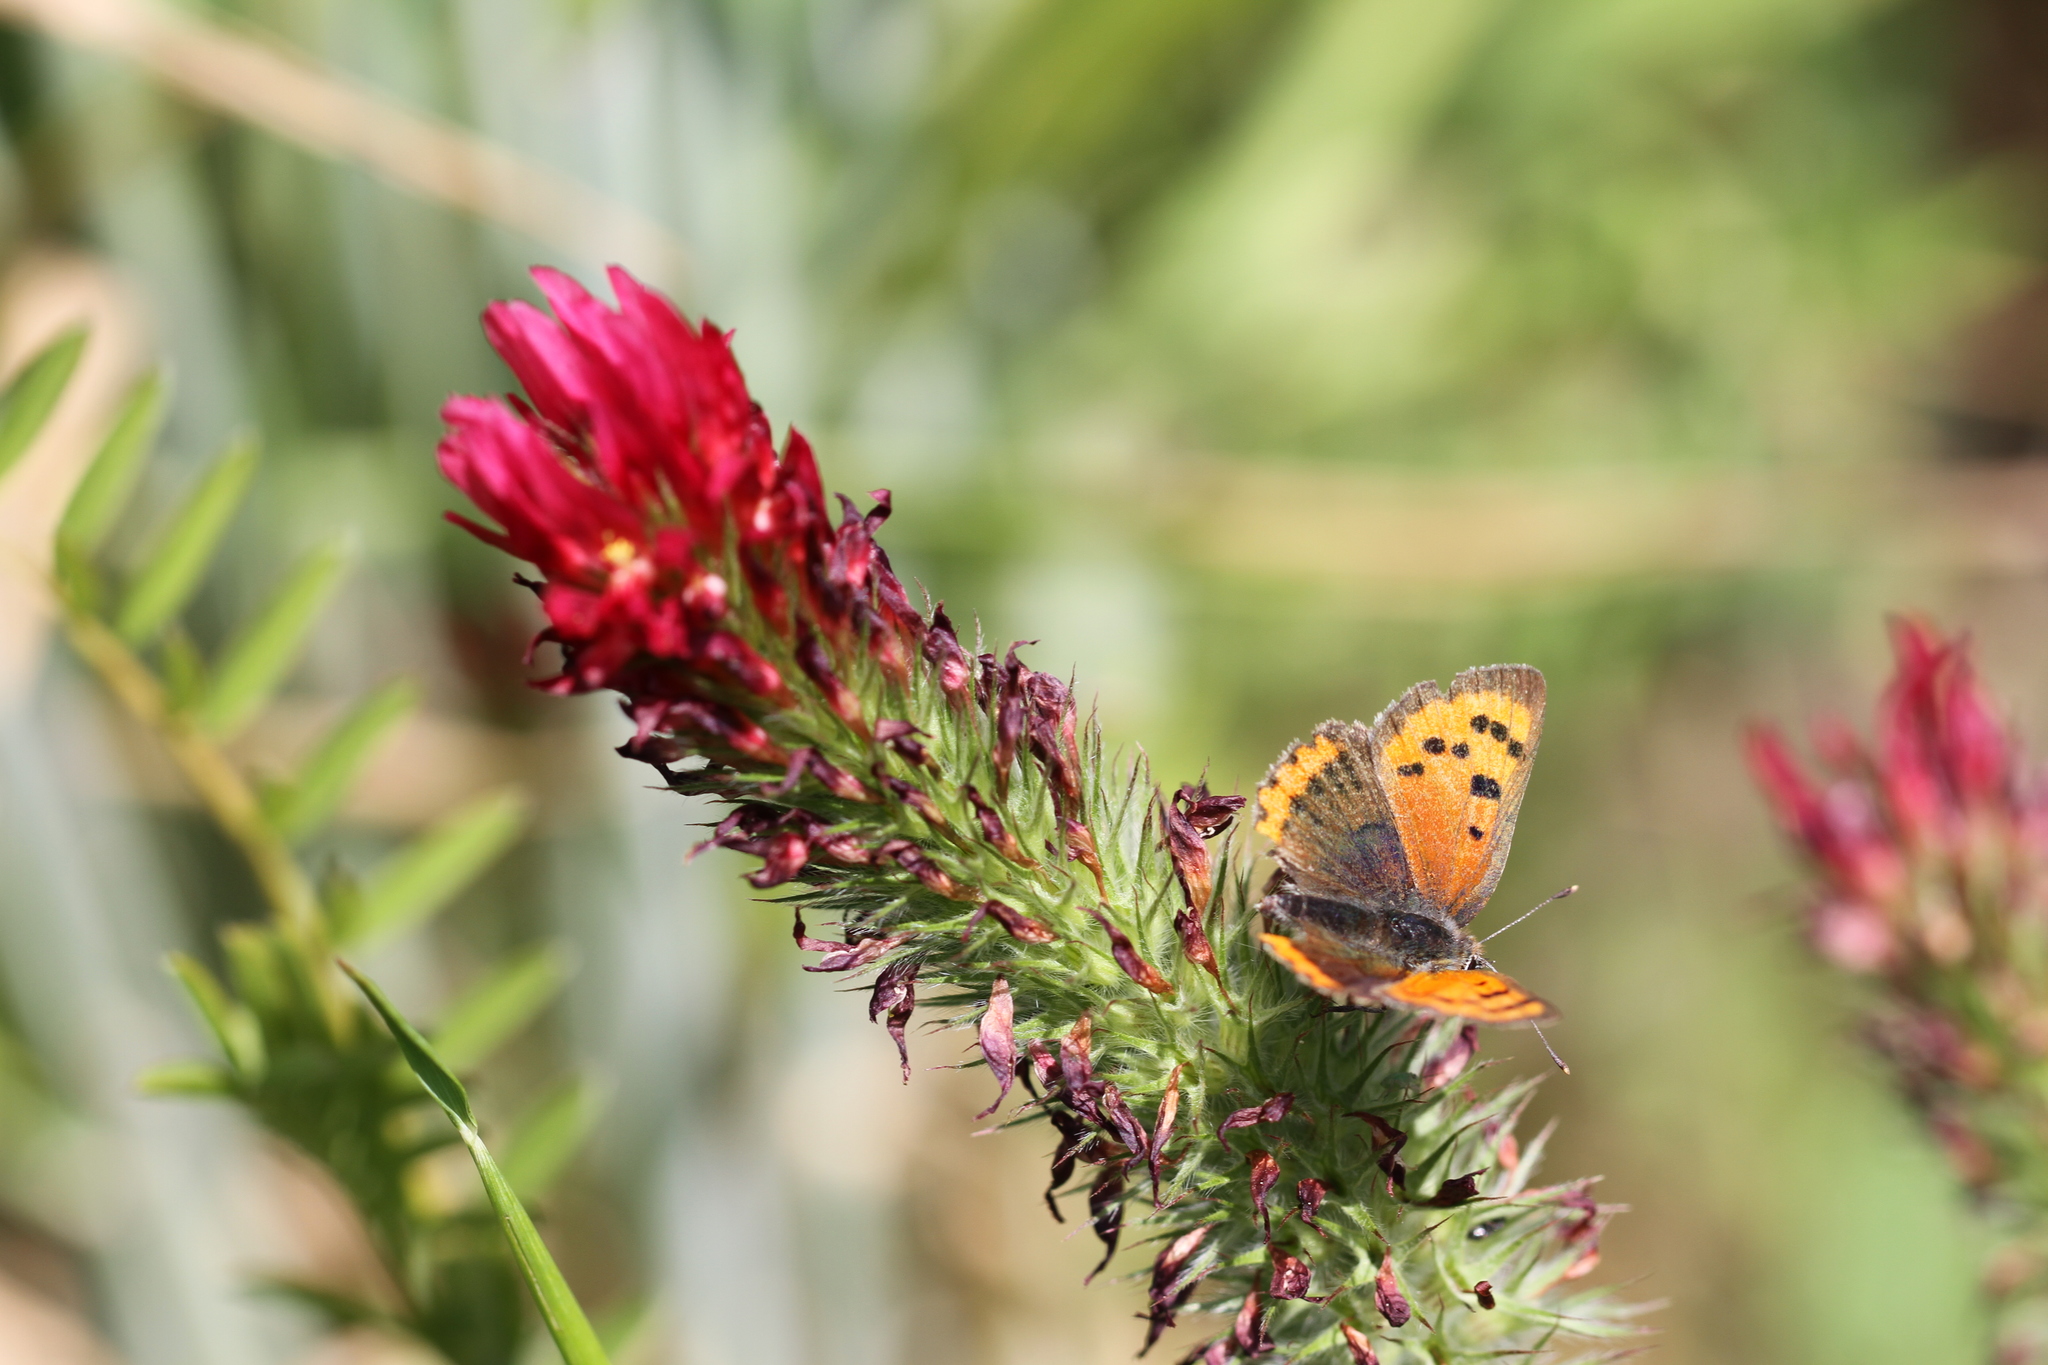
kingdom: Animalia
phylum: Arthropoda
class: Insecta
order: Lepidoptera
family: Lycaenidae
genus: Lycaena
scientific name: Lycaena phlaeas
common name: Small copper
